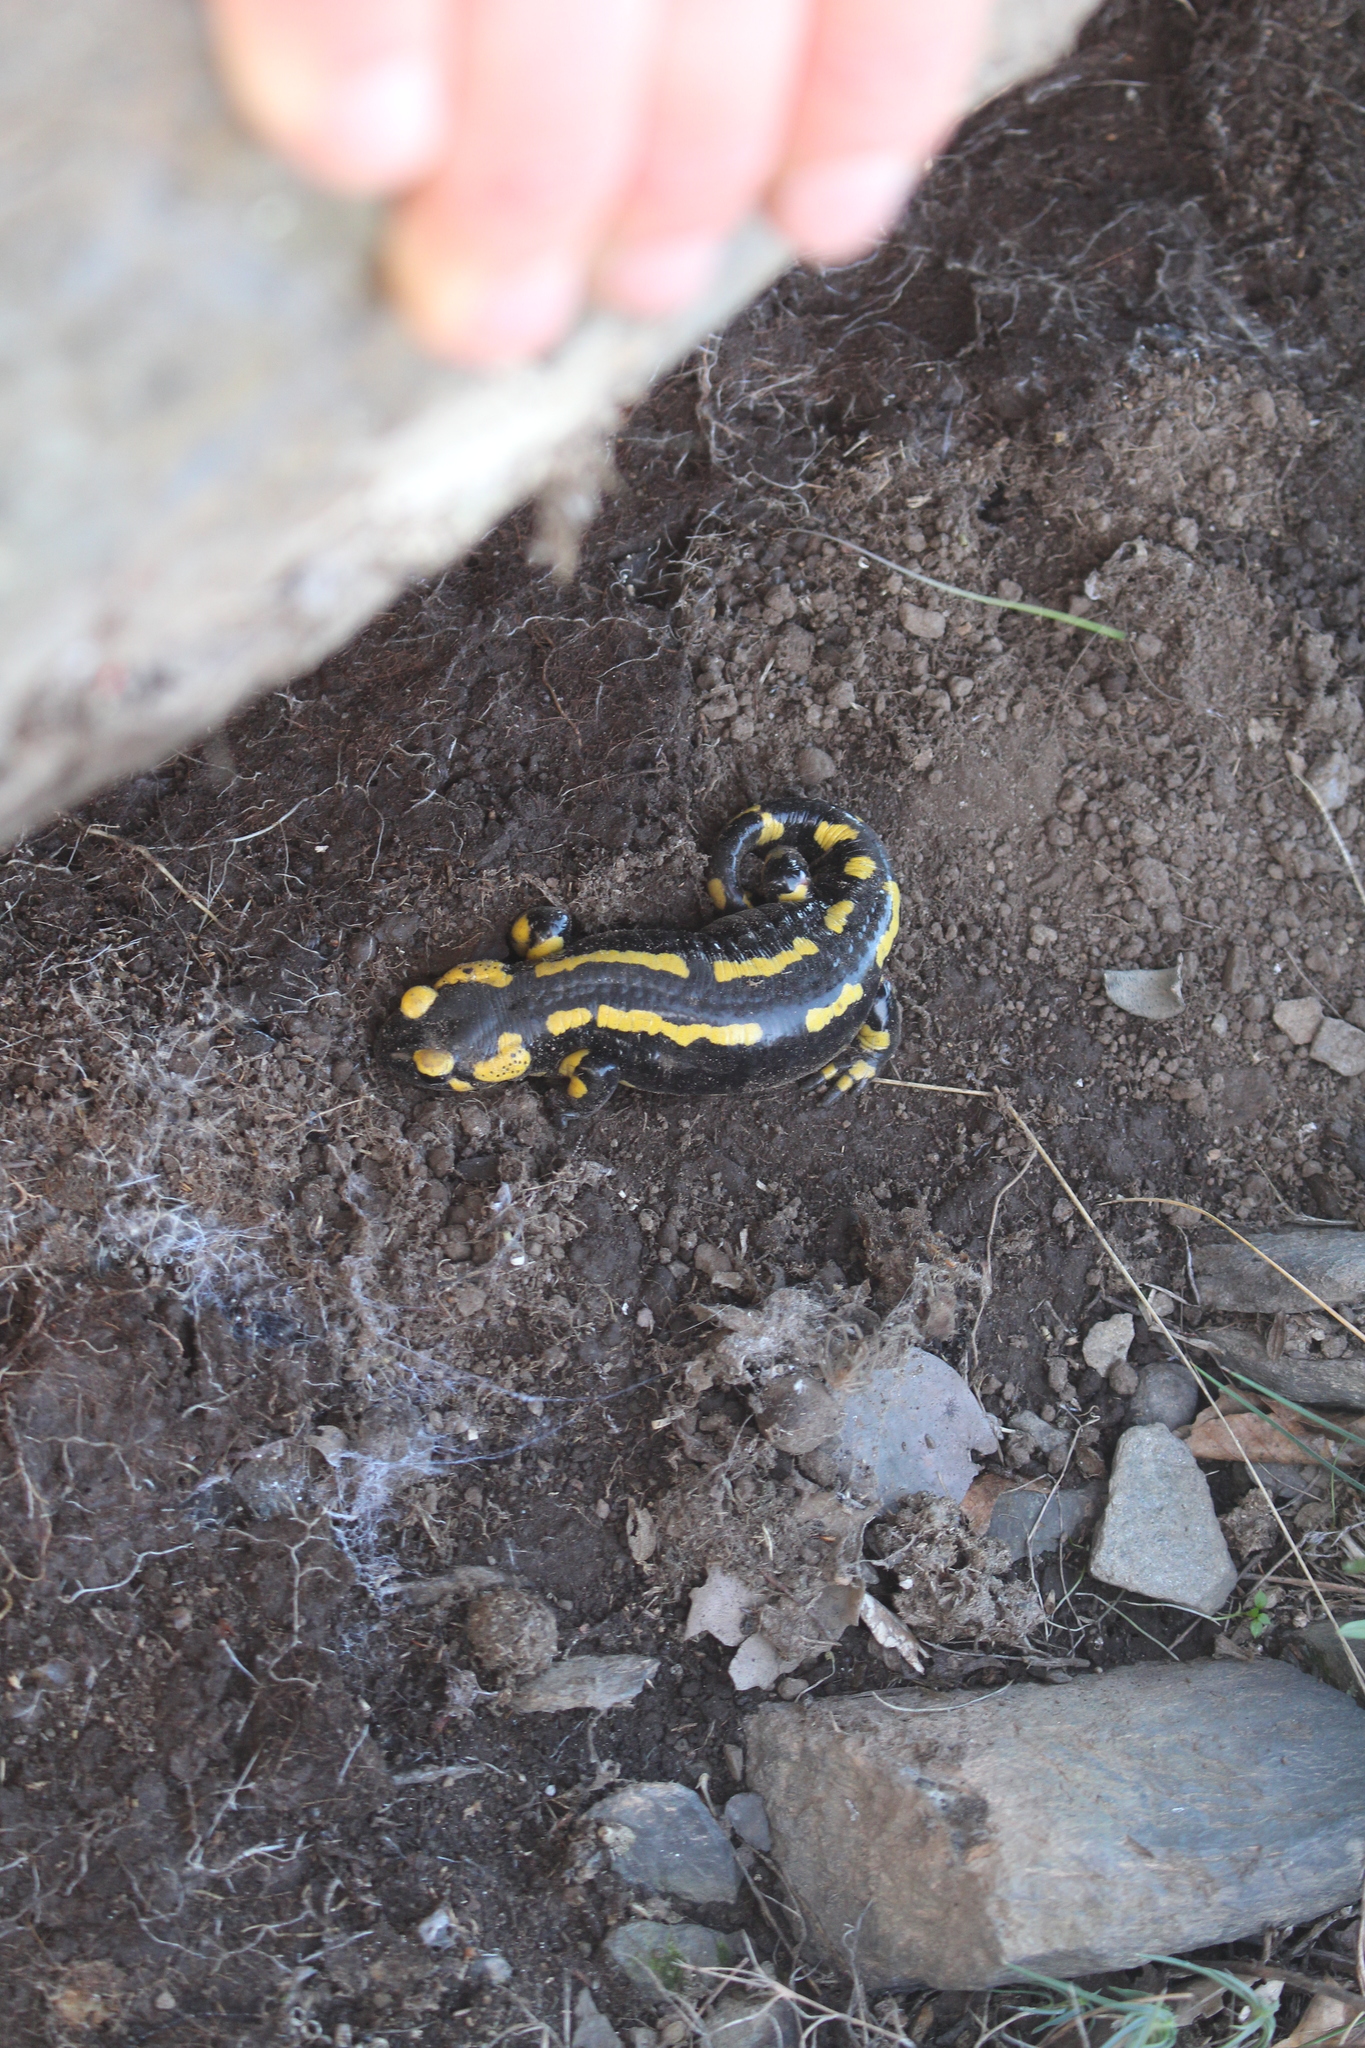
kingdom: Animalia
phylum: Chordata
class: Amphibia
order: Caudata
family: Salamandridae
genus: Salamandra
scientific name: Salamandra salamandra
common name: Fire salamander
